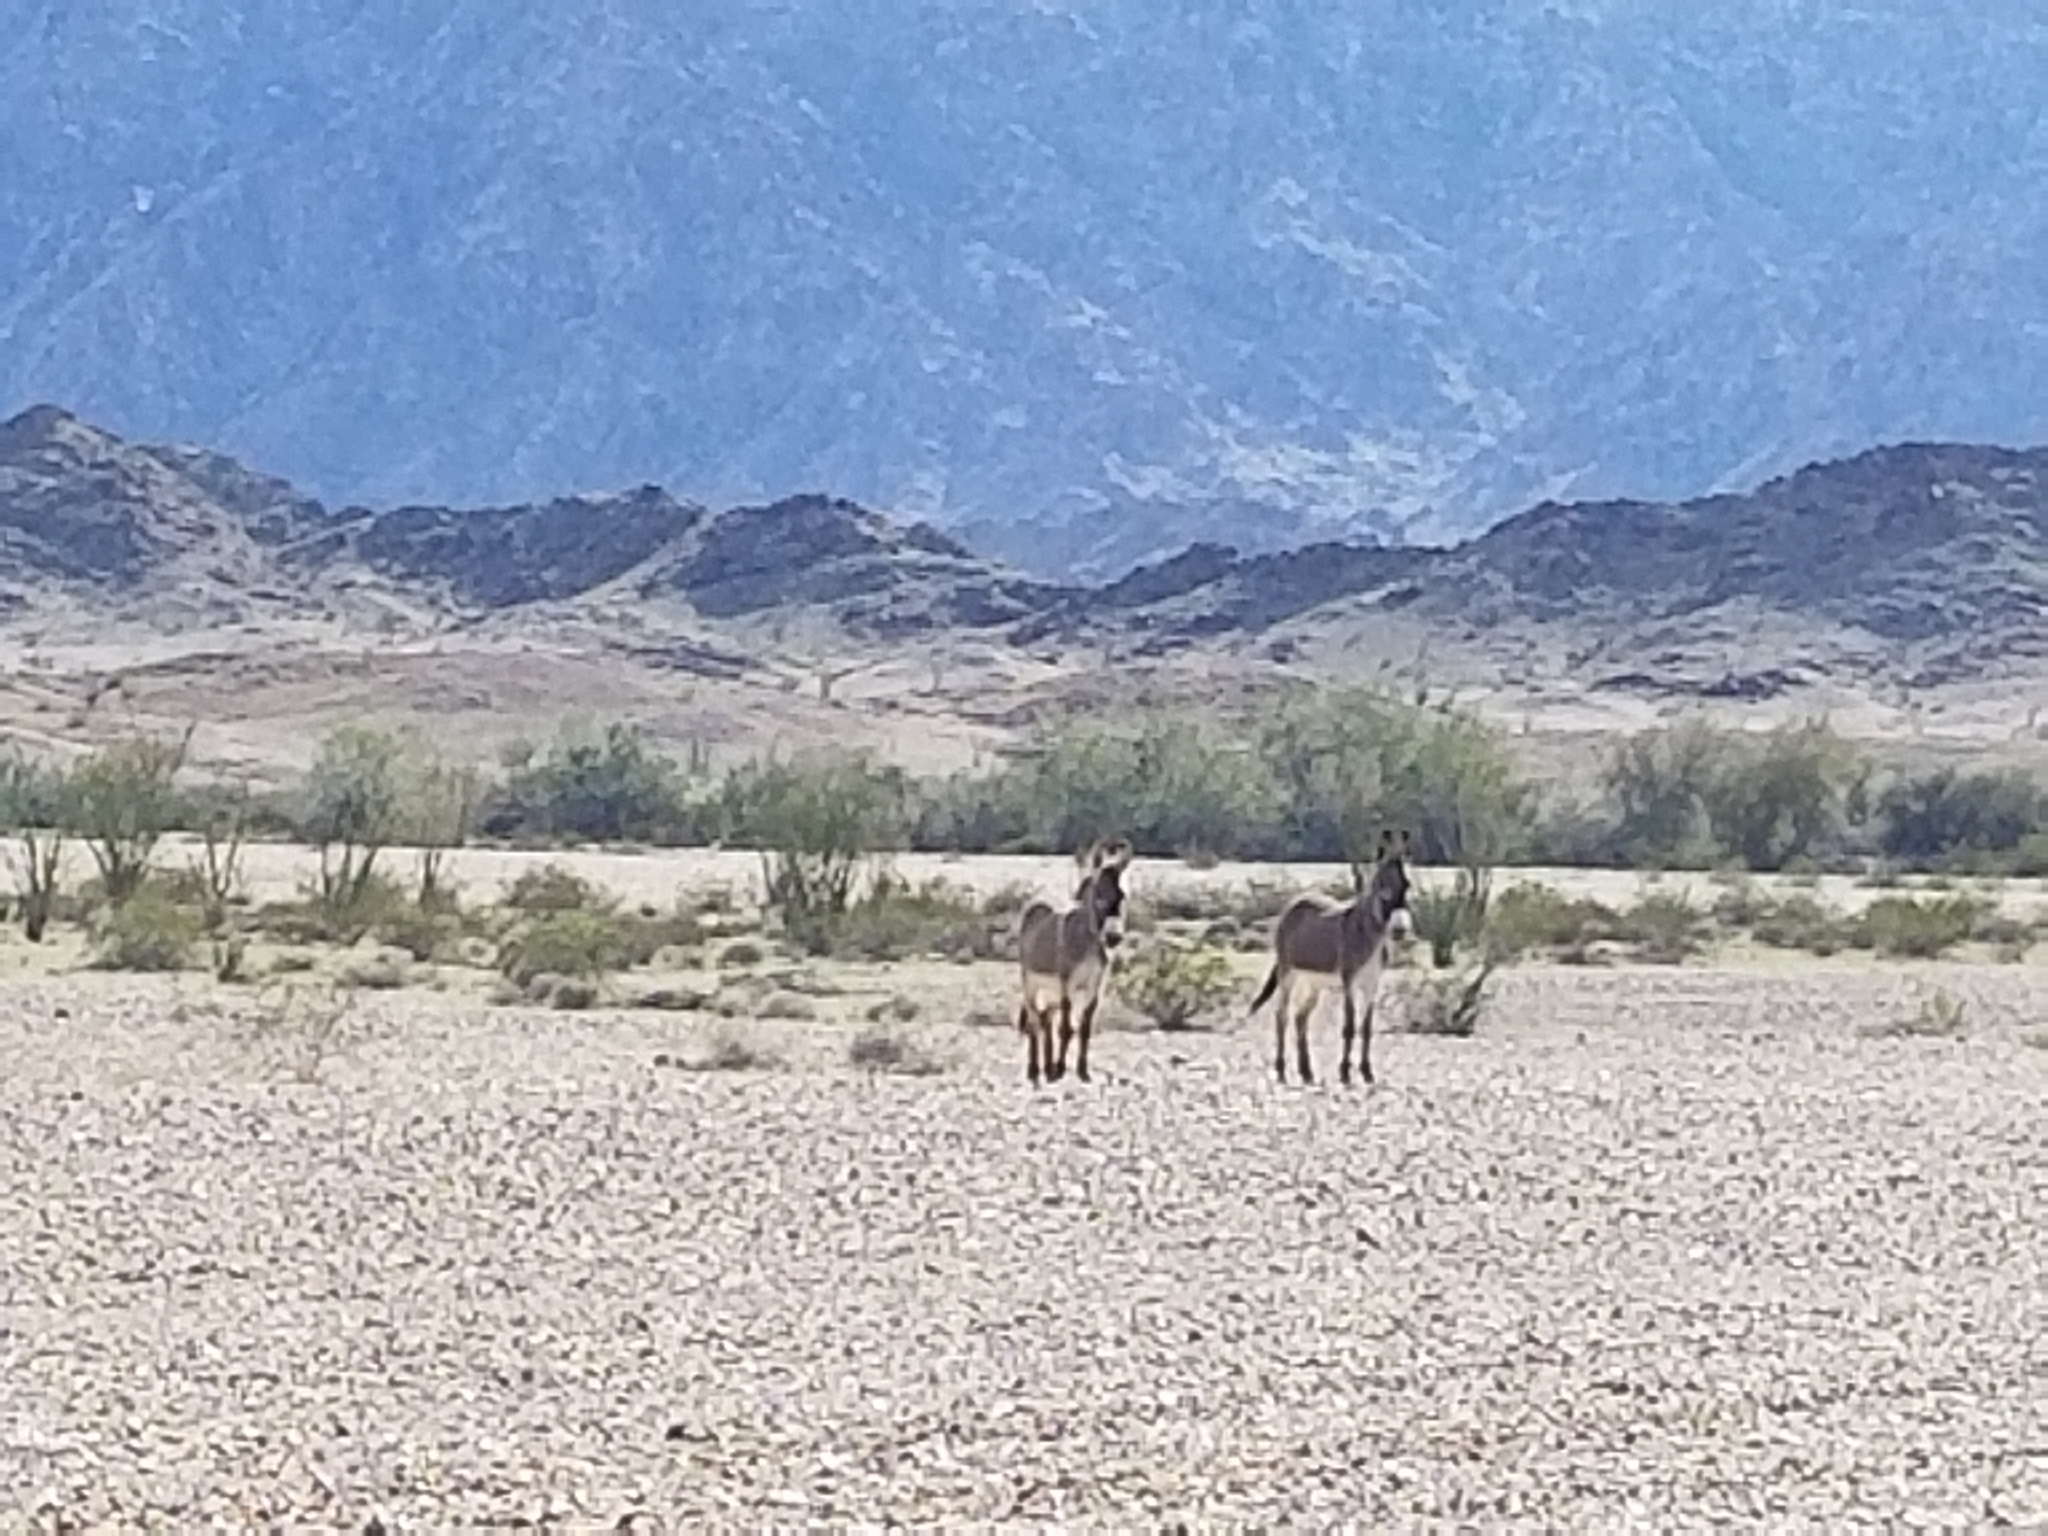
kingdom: Animalia
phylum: Chordata
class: Mammalia
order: Perissodactyla
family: Equidae
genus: Equus
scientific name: Equus asinus
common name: Ass
